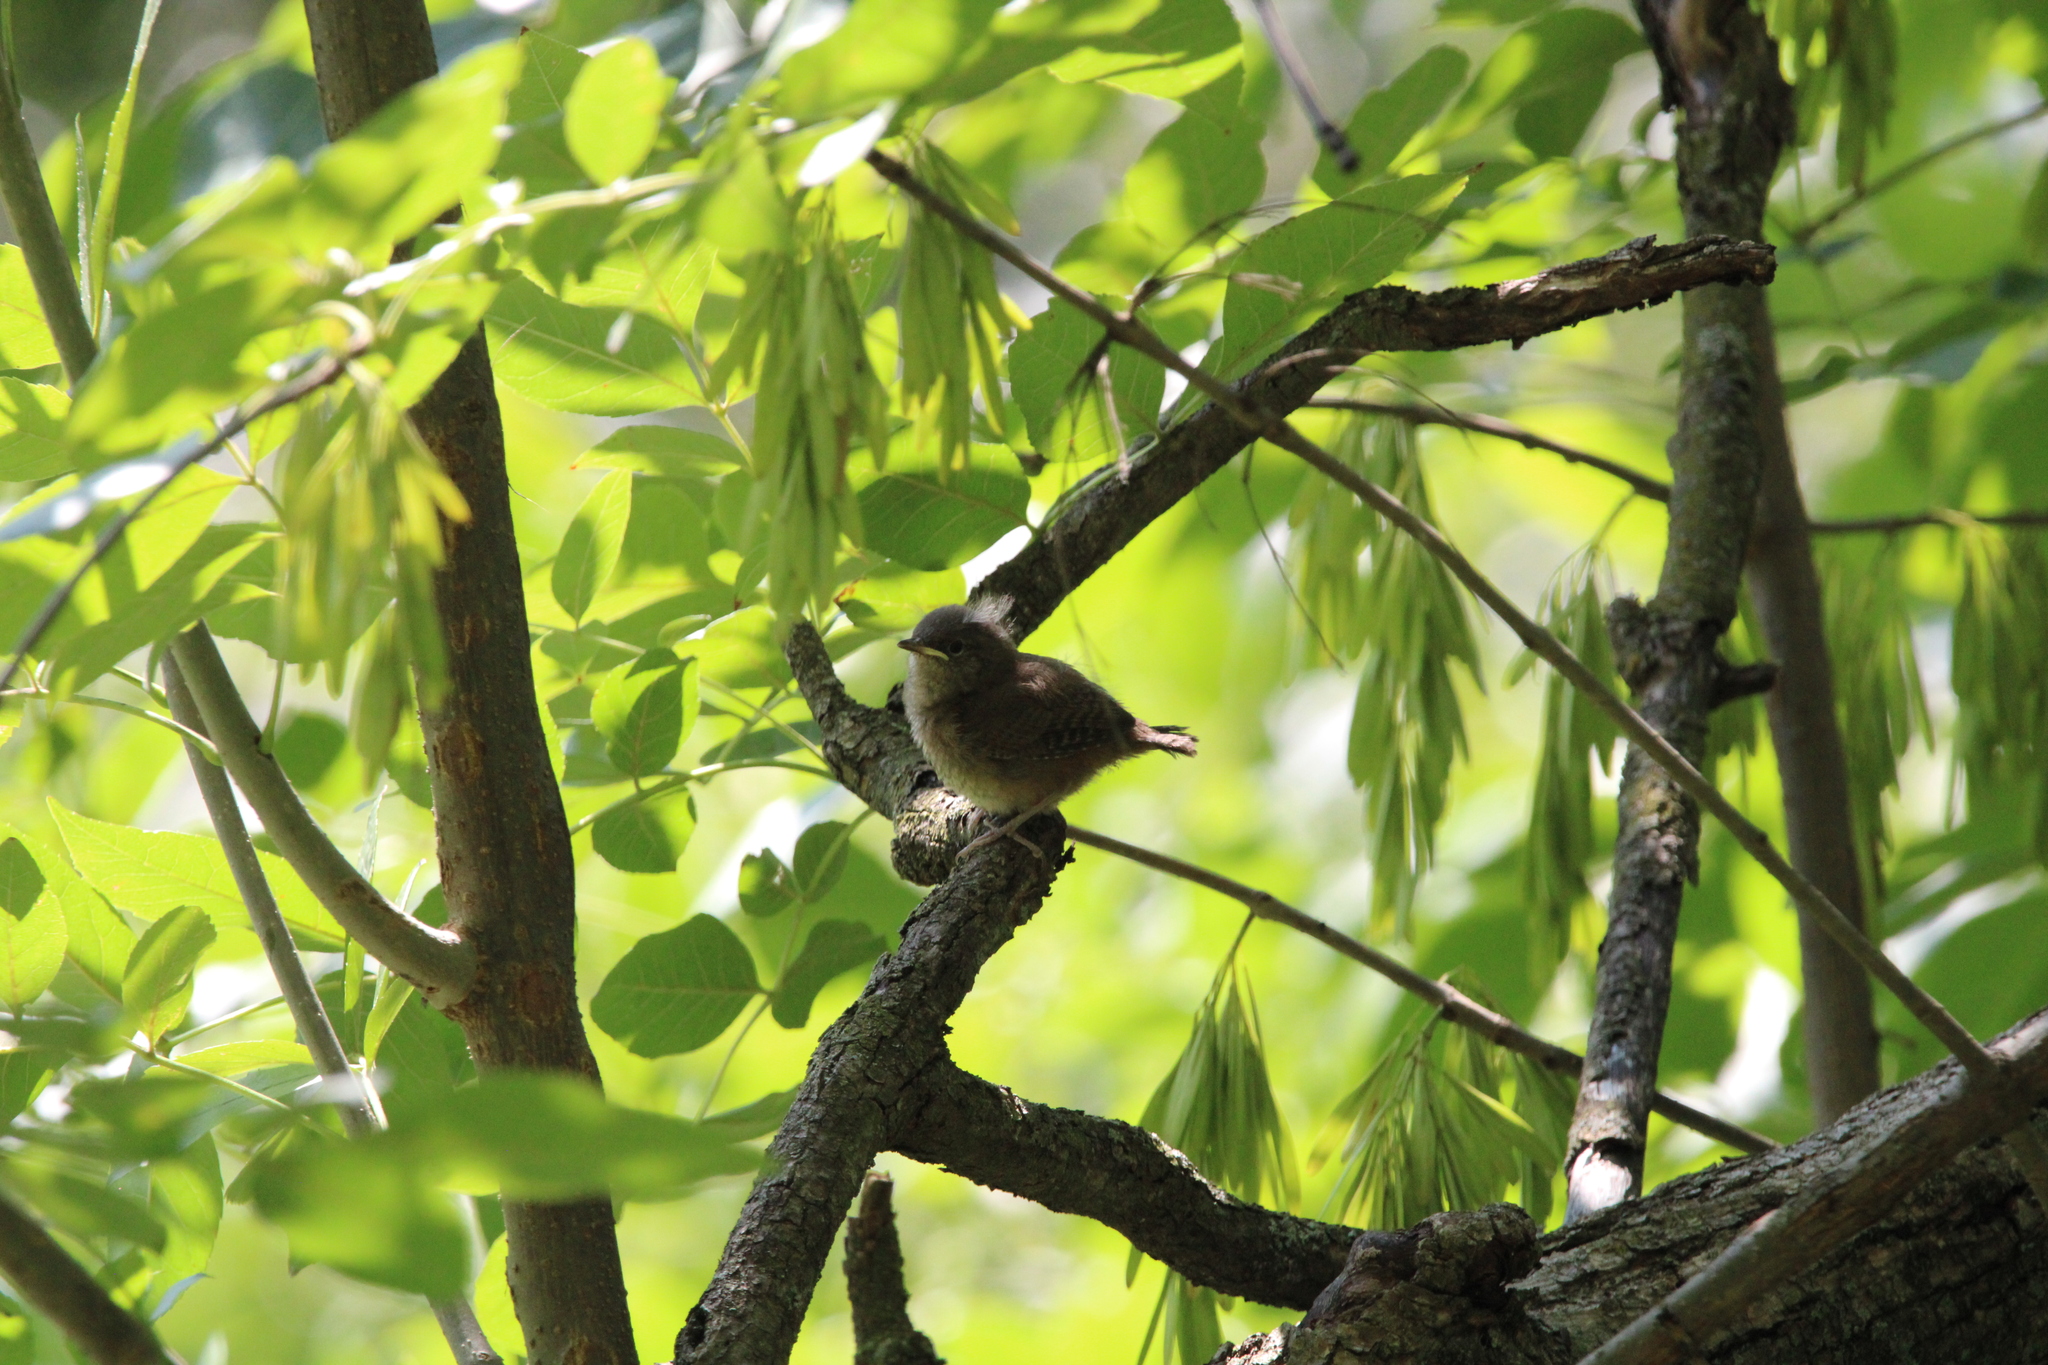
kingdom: Animalia
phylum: Chordata
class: Aves
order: Passeriformes
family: Troglodytidae
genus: Troglodytes
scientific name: Troglodytes aedon
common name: House wren
